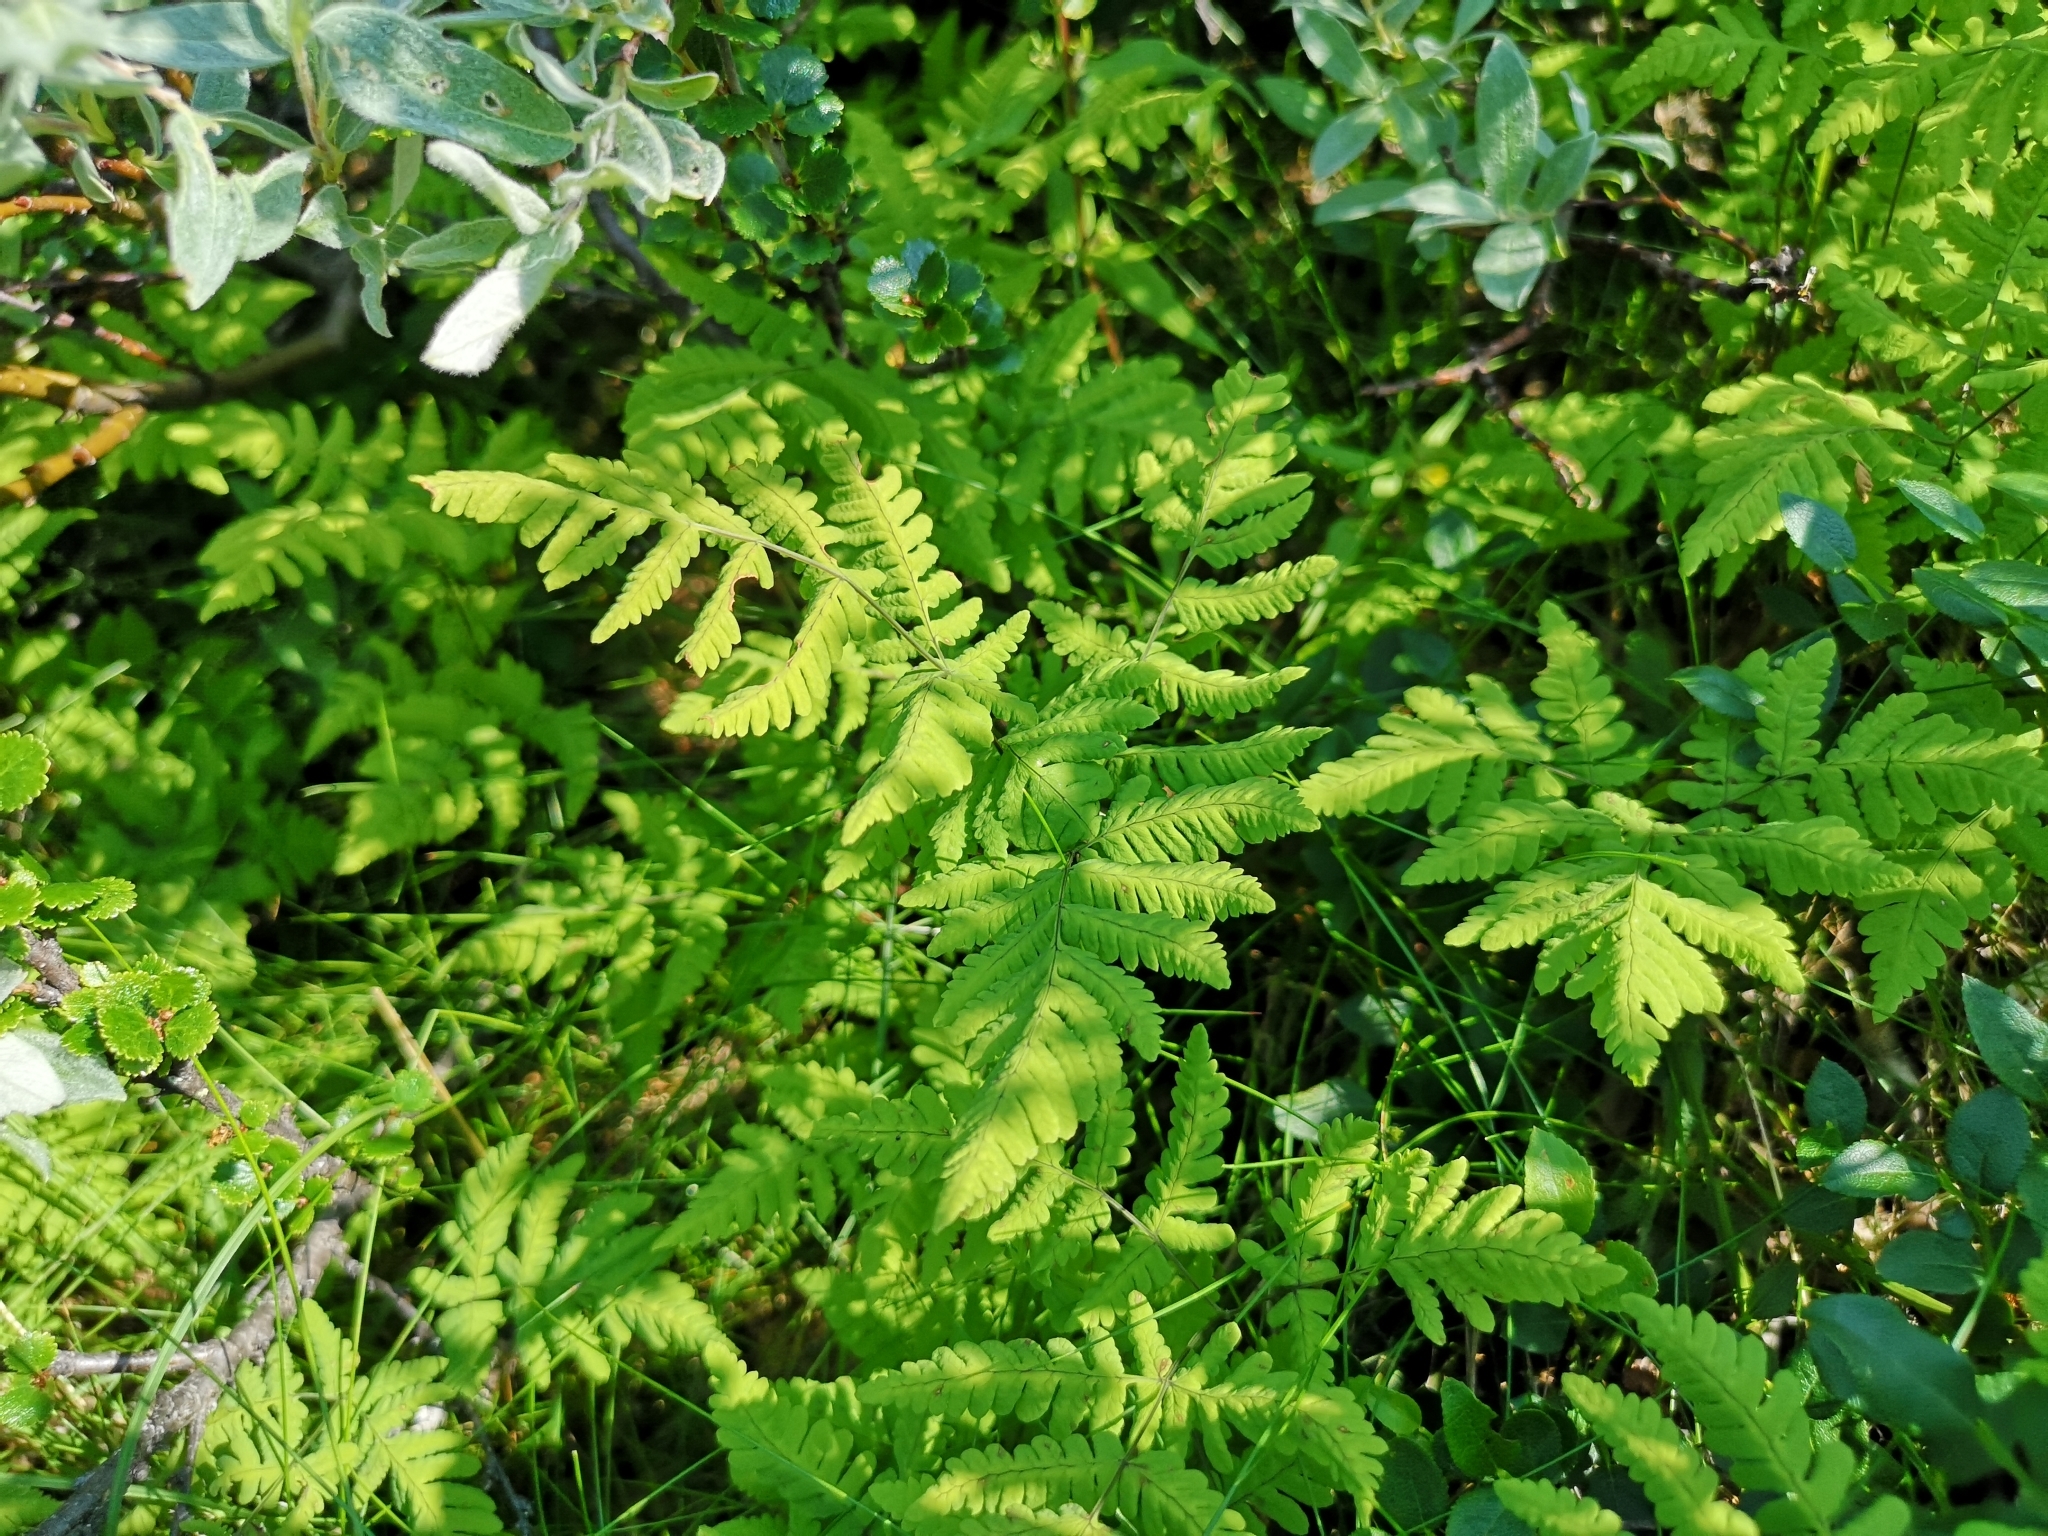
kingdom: Plantae
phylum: Tracheophyta
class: Polypodiopsida
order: Polypodiales
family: Cystopteridaceae
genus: Gymnocarpium
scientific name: Gymnocarpium dryopteris
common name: Oak fern
